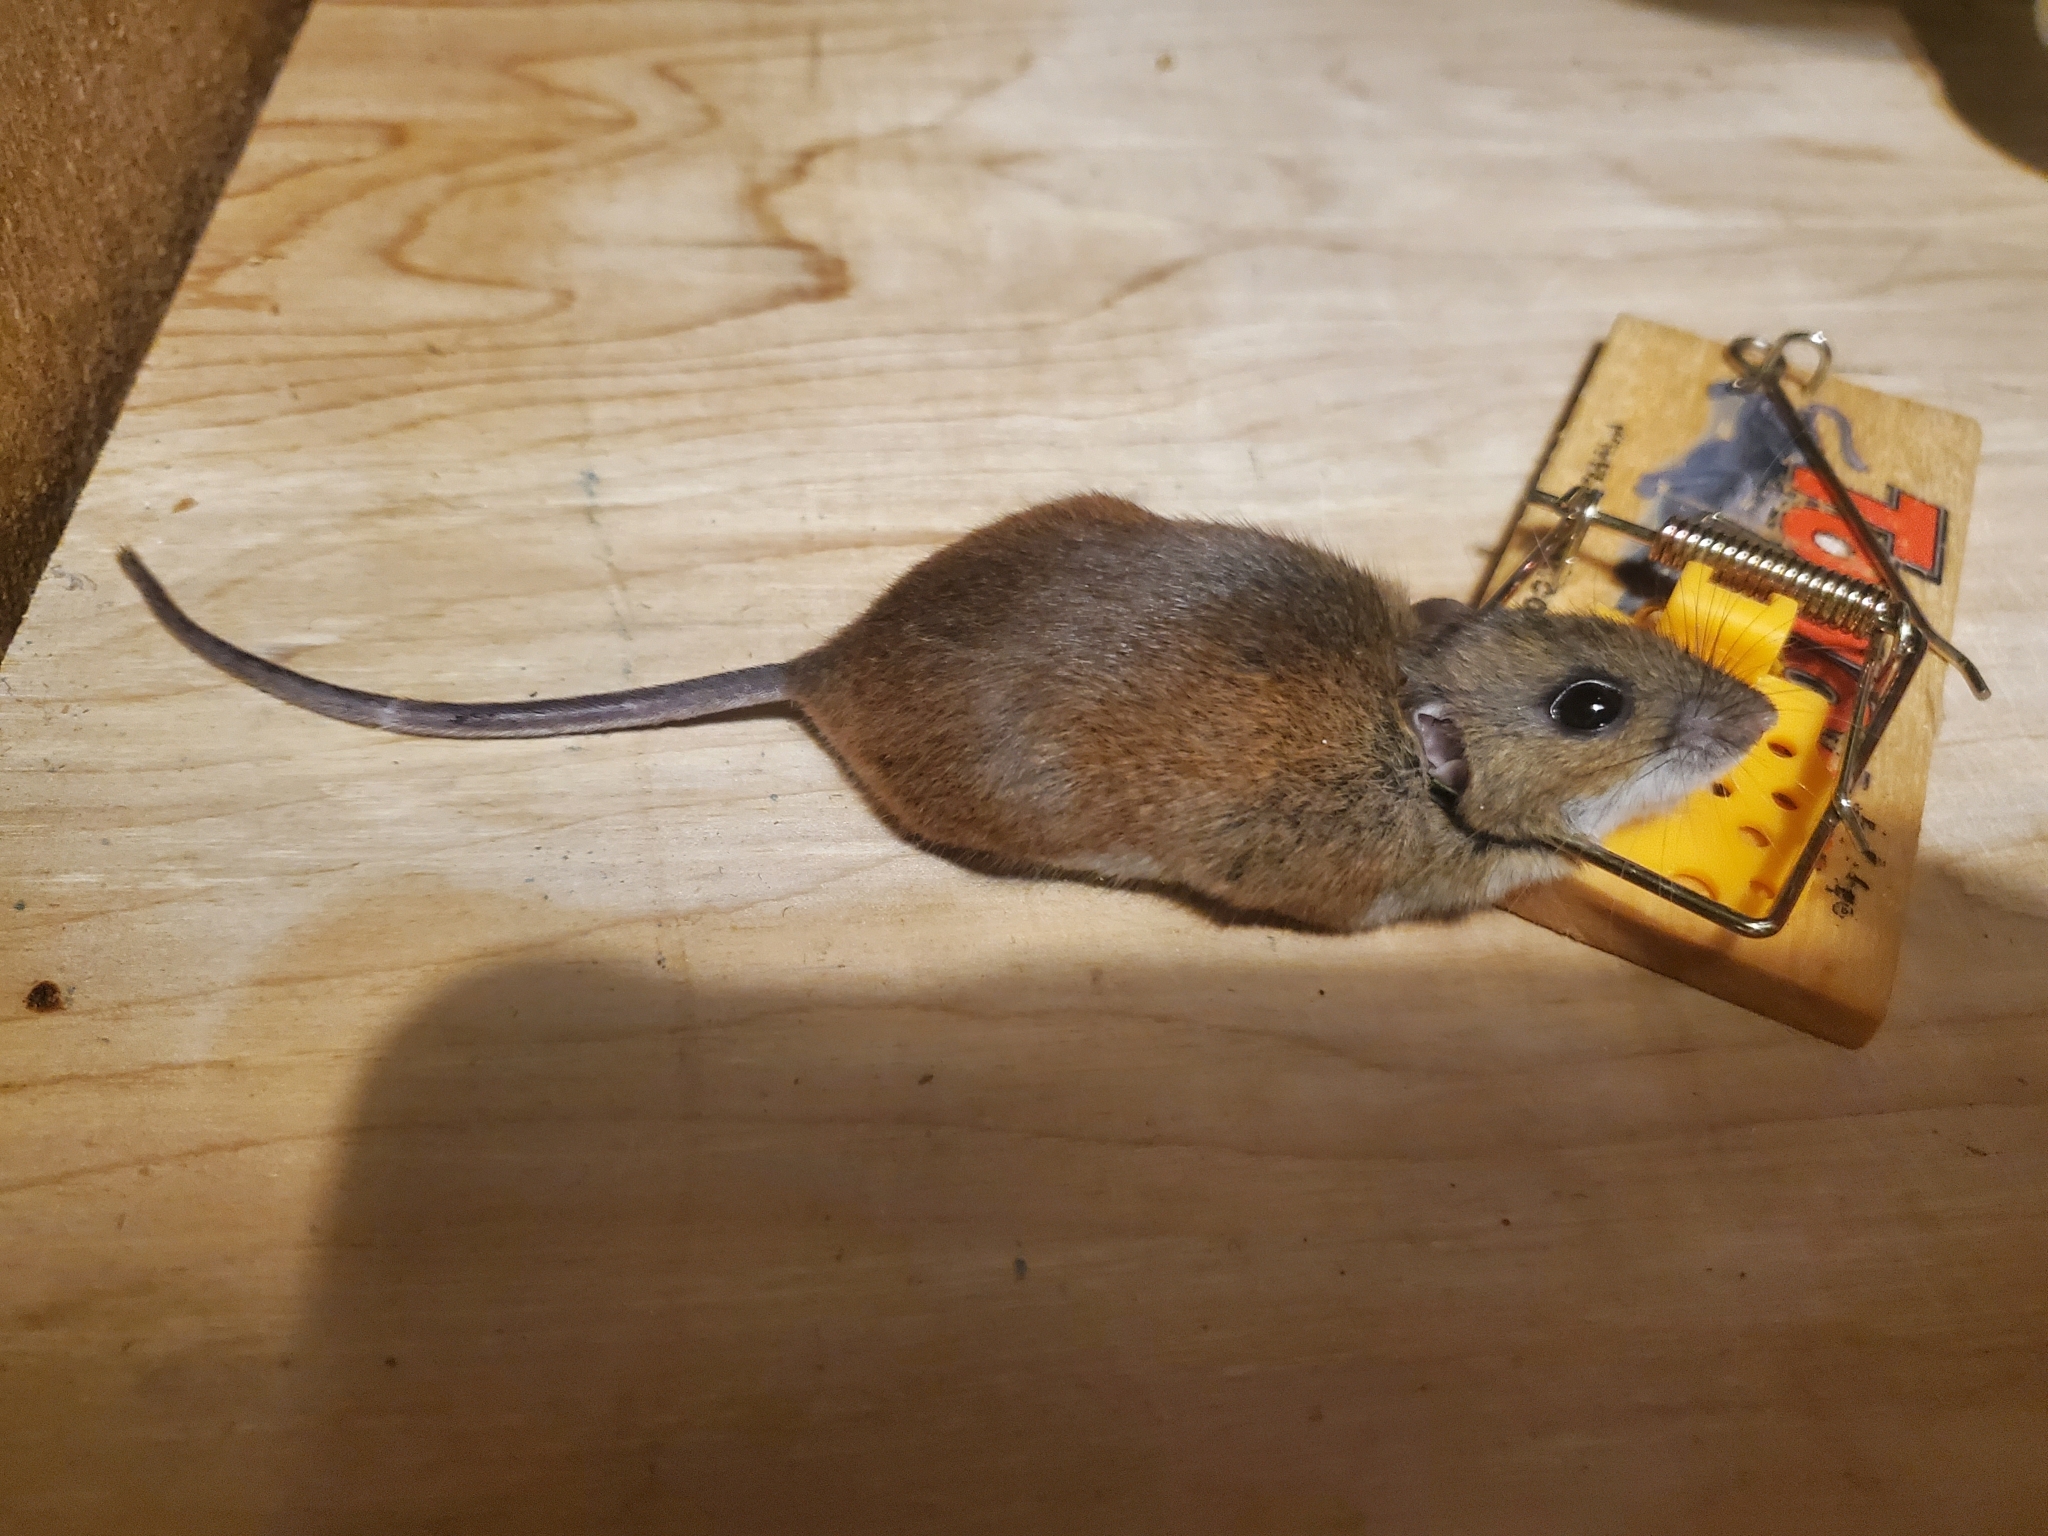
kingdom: Animalia
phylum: Chordata
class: Mammalia
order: Rodentia
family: Cricetidae
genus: Peromyscus
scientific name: Peromyscus maniculatus
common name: Deer mouse
